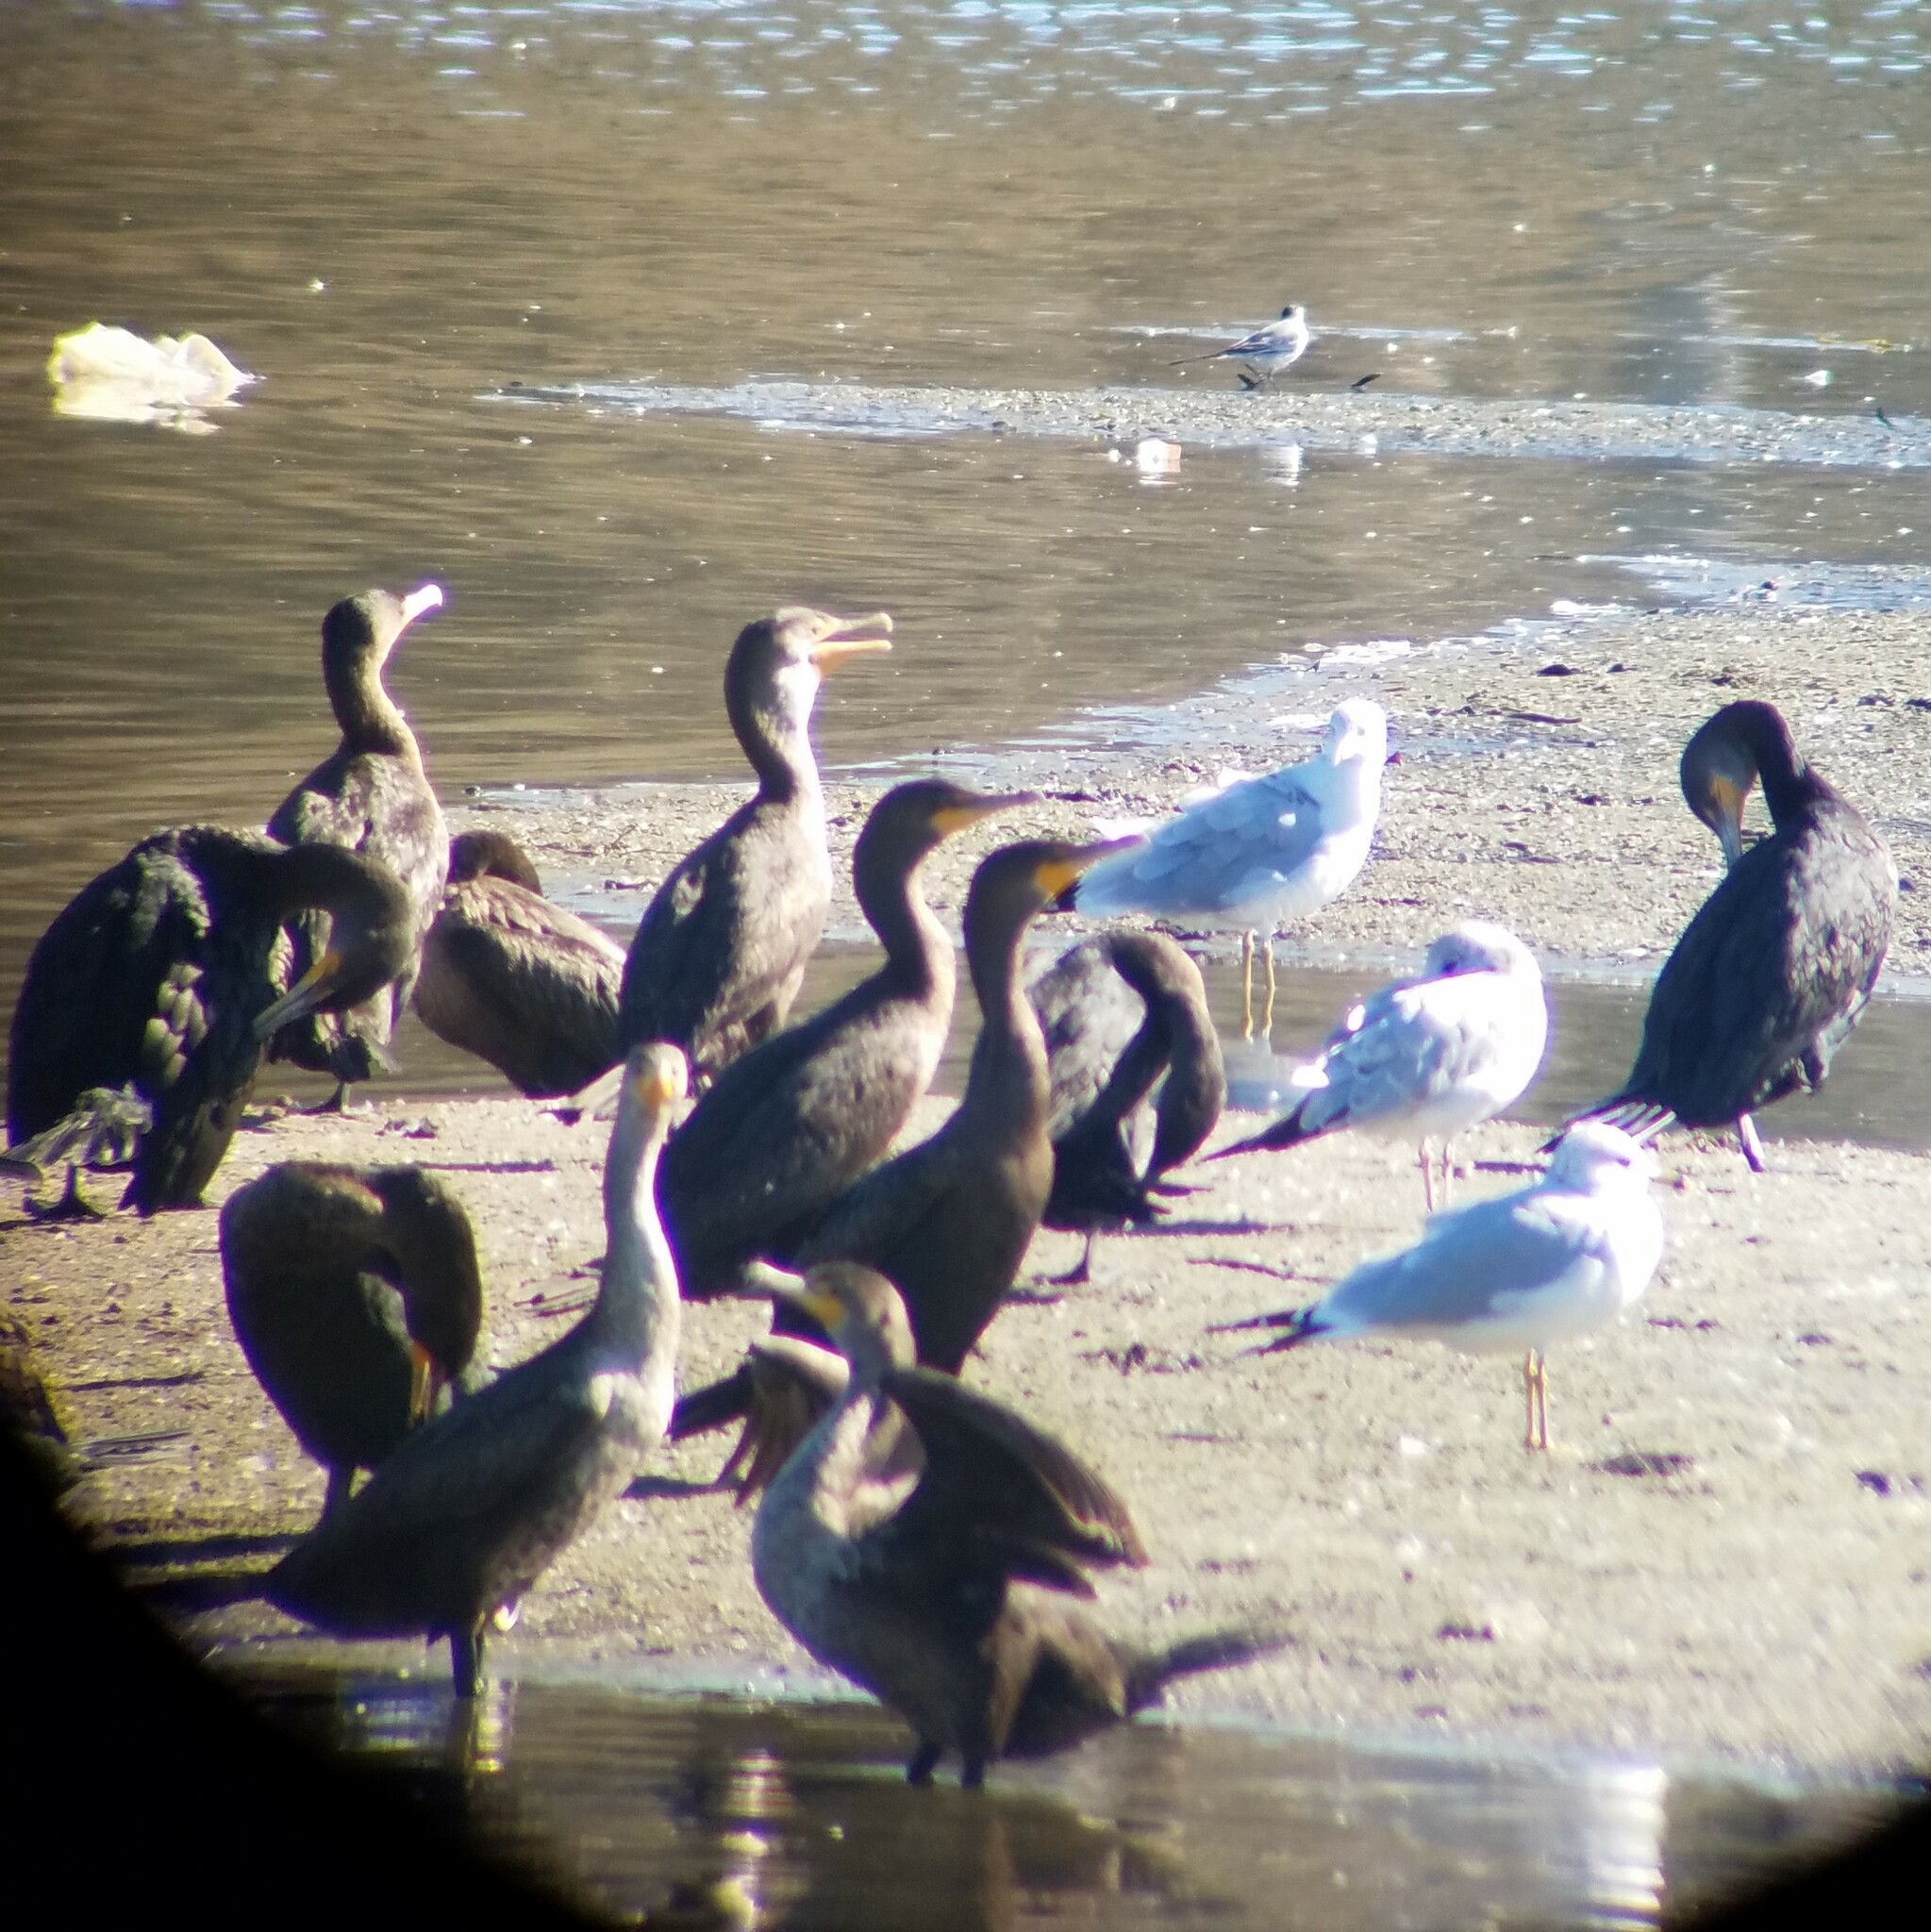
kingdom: Animalia
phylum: Chordata
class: Aves
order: Charadriiformes
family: Laridae
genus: Larus
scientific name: Larus delawarensis
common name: Ring-billed gull
